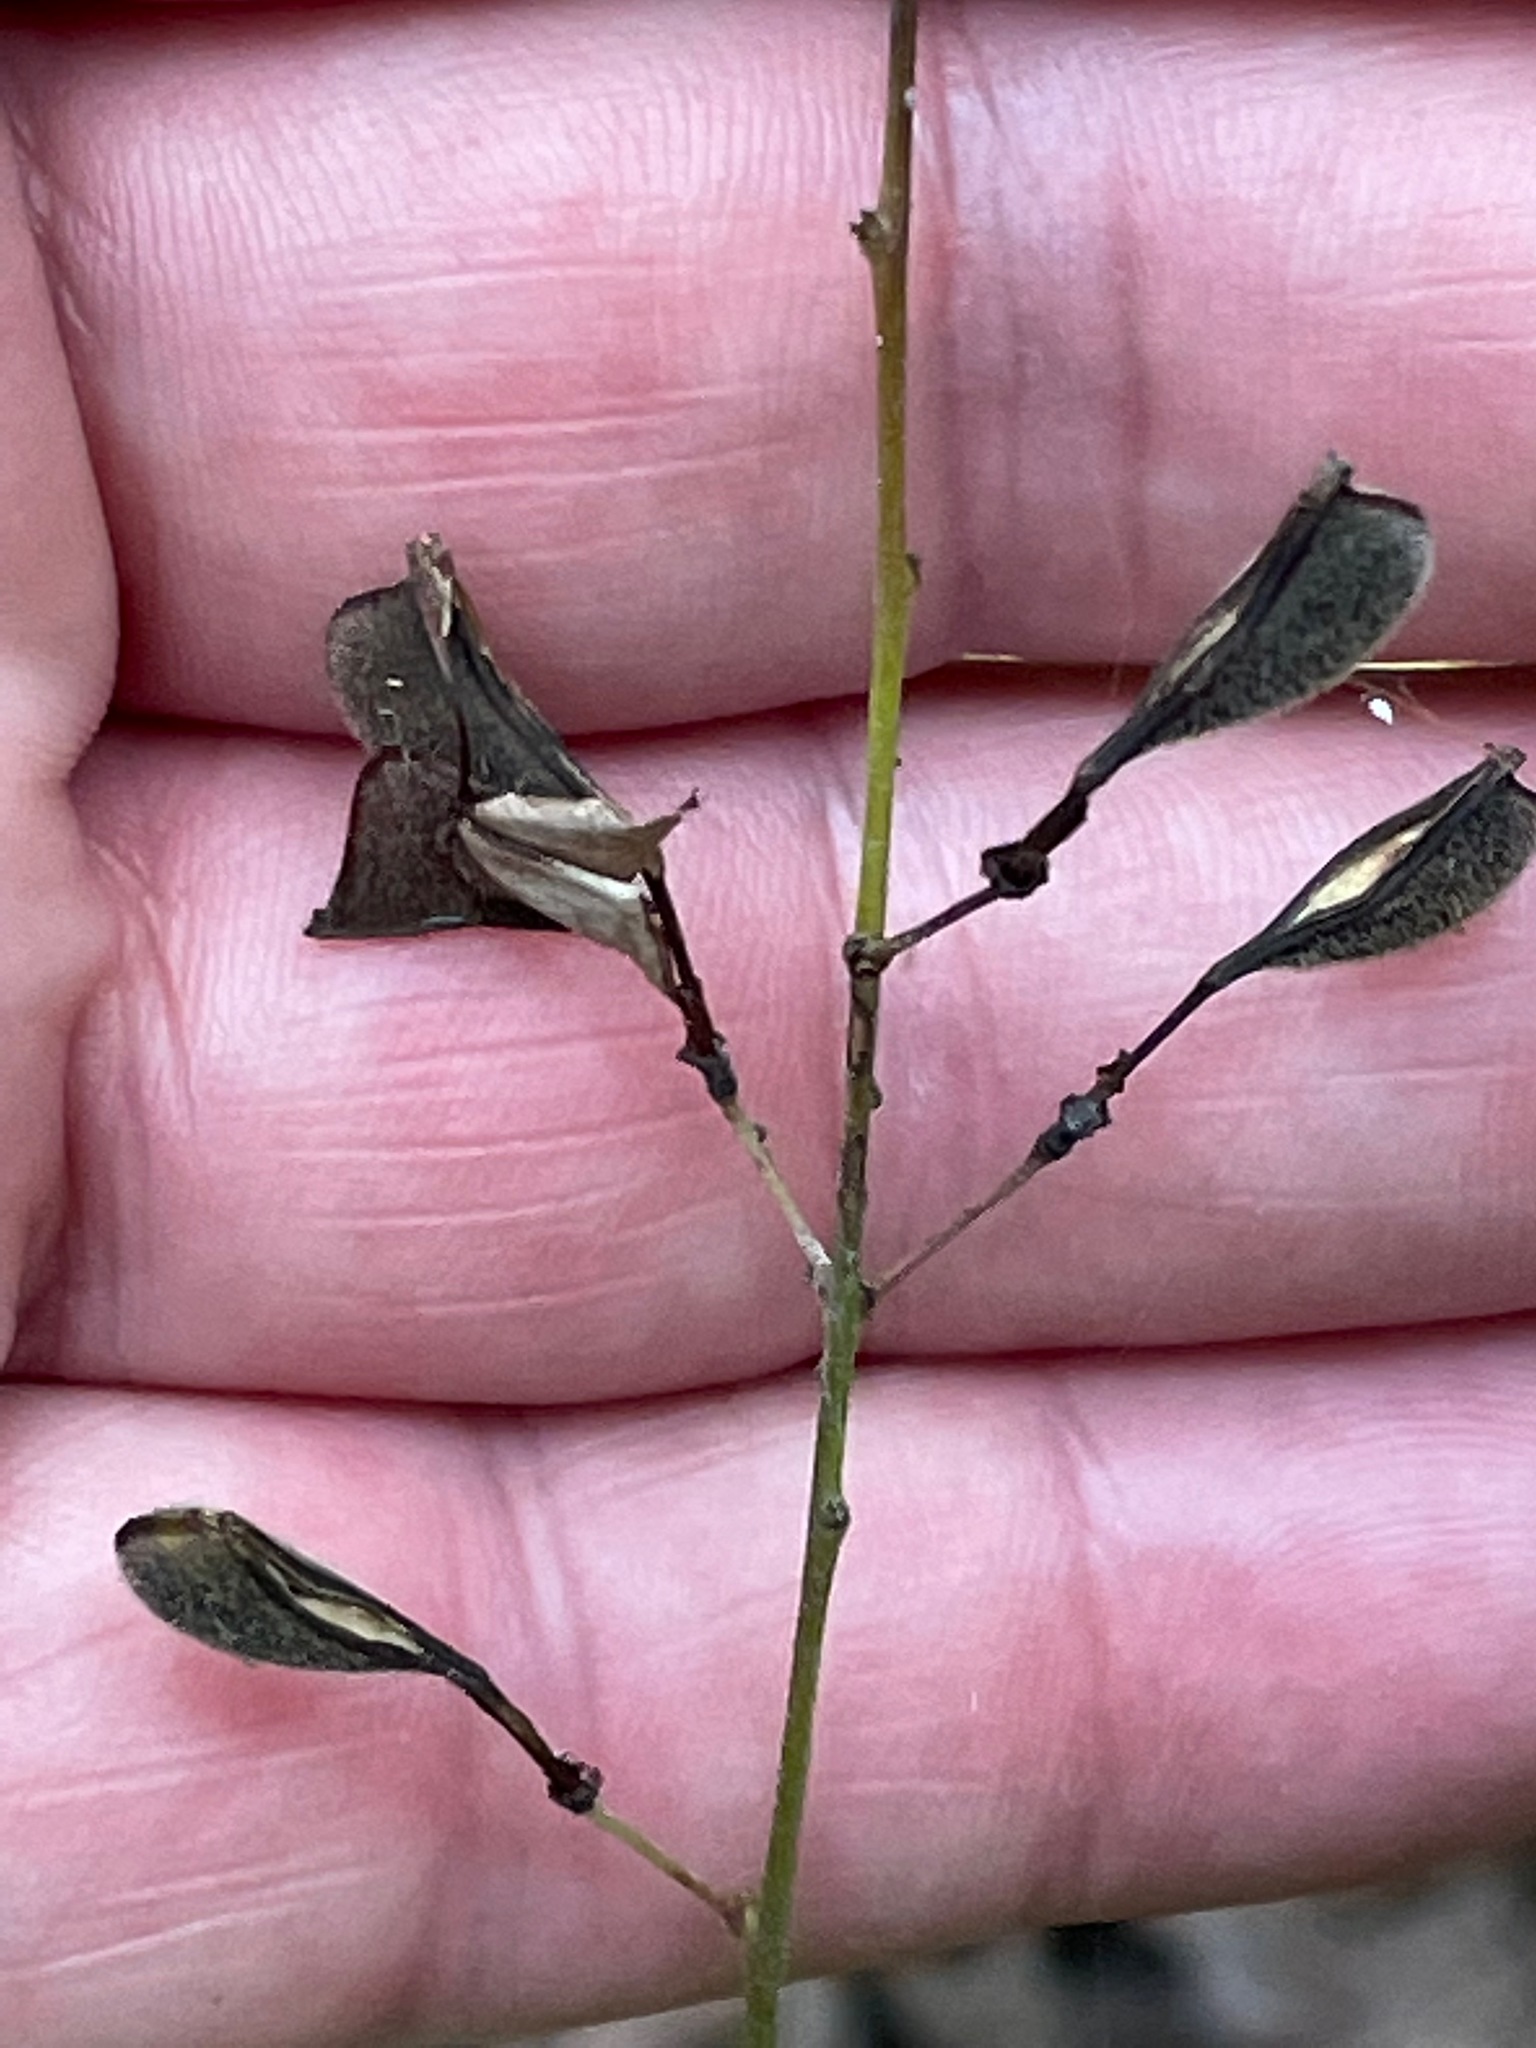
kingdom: Plantae
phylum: Tracheophyta
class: Magnoliopsida
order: Fabales
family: Fabaceae
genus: Hylodesmum
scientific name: Hylodesmum glutinosum
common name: Clustered-leaved tick-trefoil
